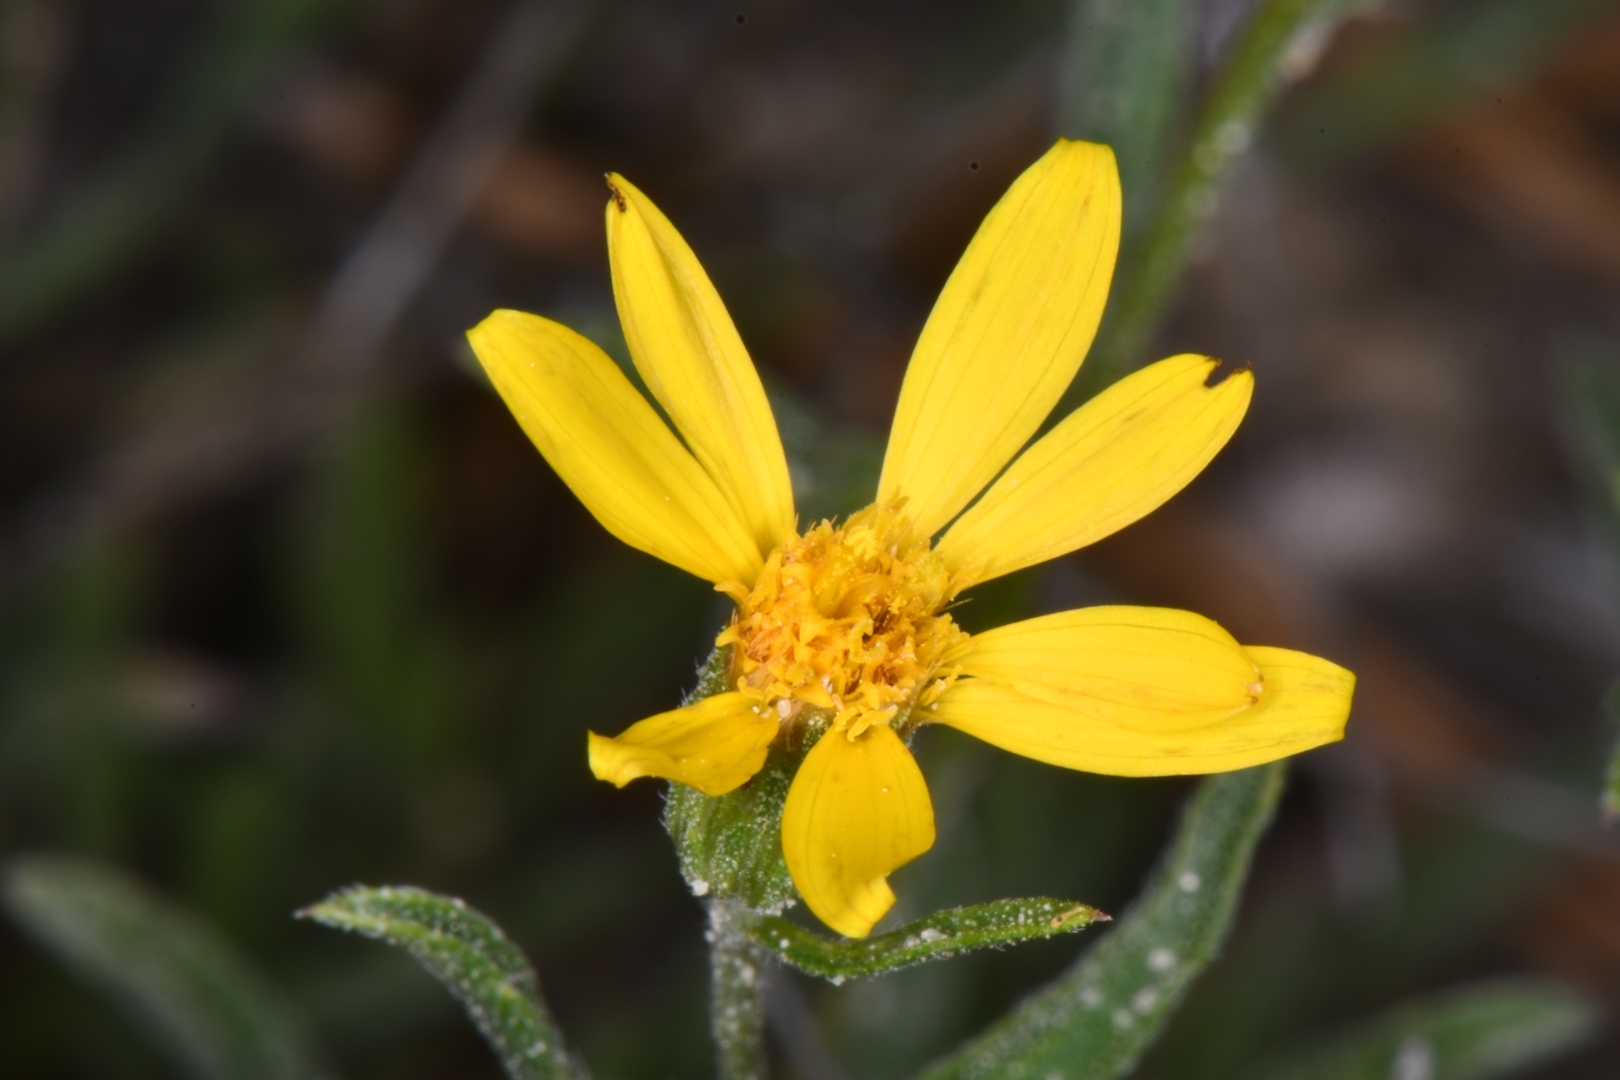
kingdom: Plantae
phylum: Tracheophyta
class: Magnoliopsida
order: Asterales
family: Asteraceae
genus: Heterotheca
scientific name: Heterotheca polothrix
